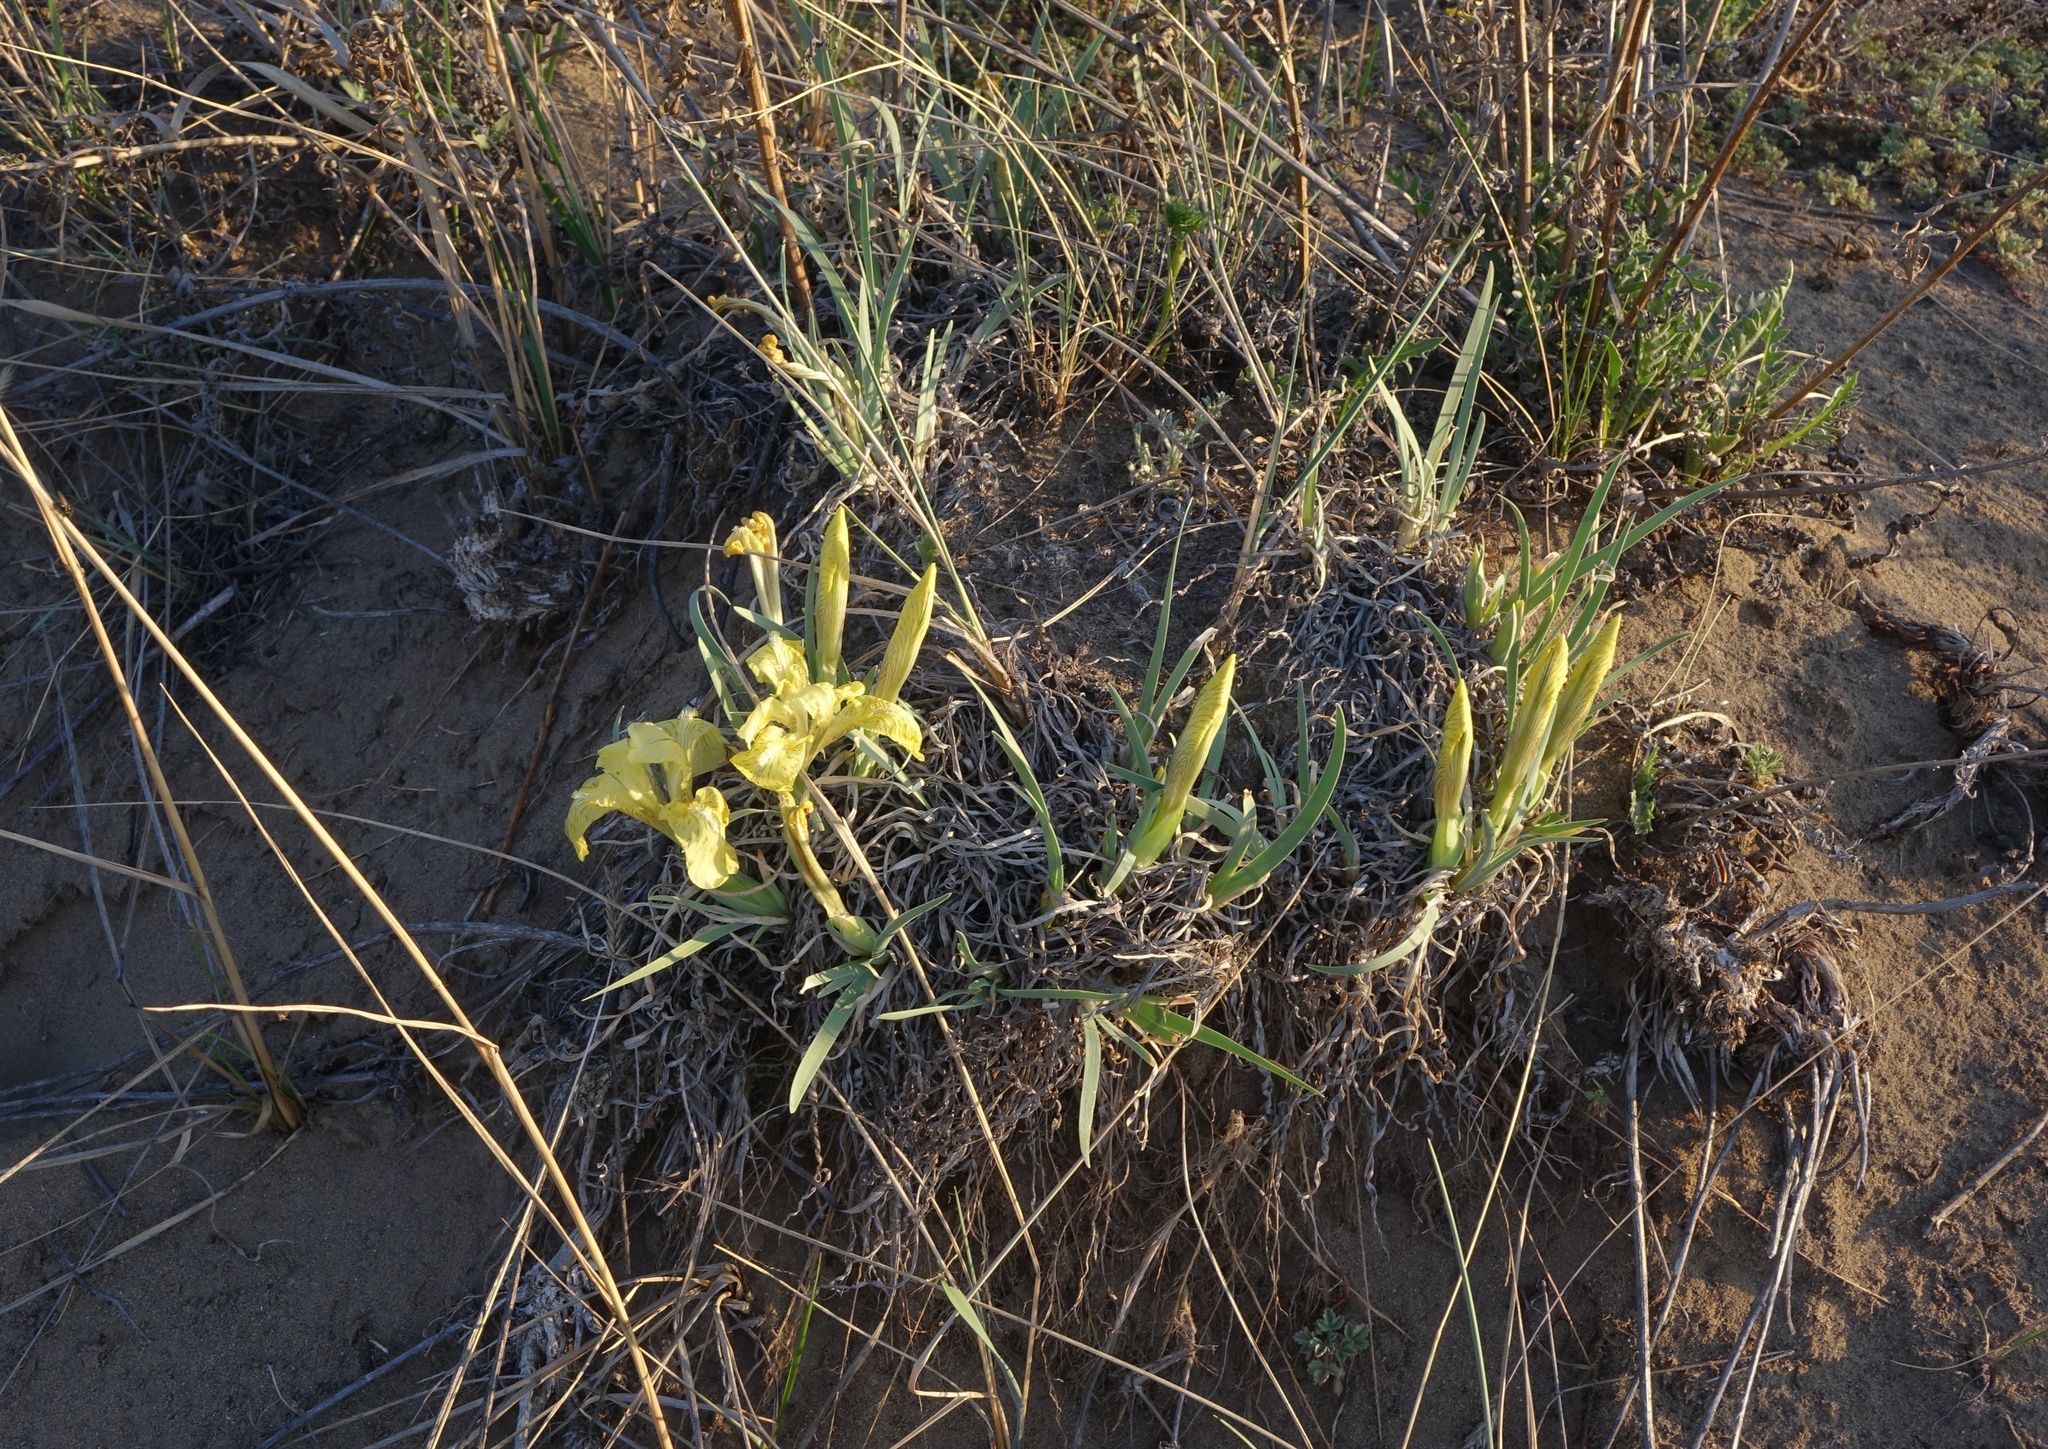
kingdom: Plantae
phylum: Tracheophyta
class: Liliopsida
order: Asparagales
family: Iridaceae
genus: Iris
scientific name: Iris potaninii
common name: Curl-sheath iris
